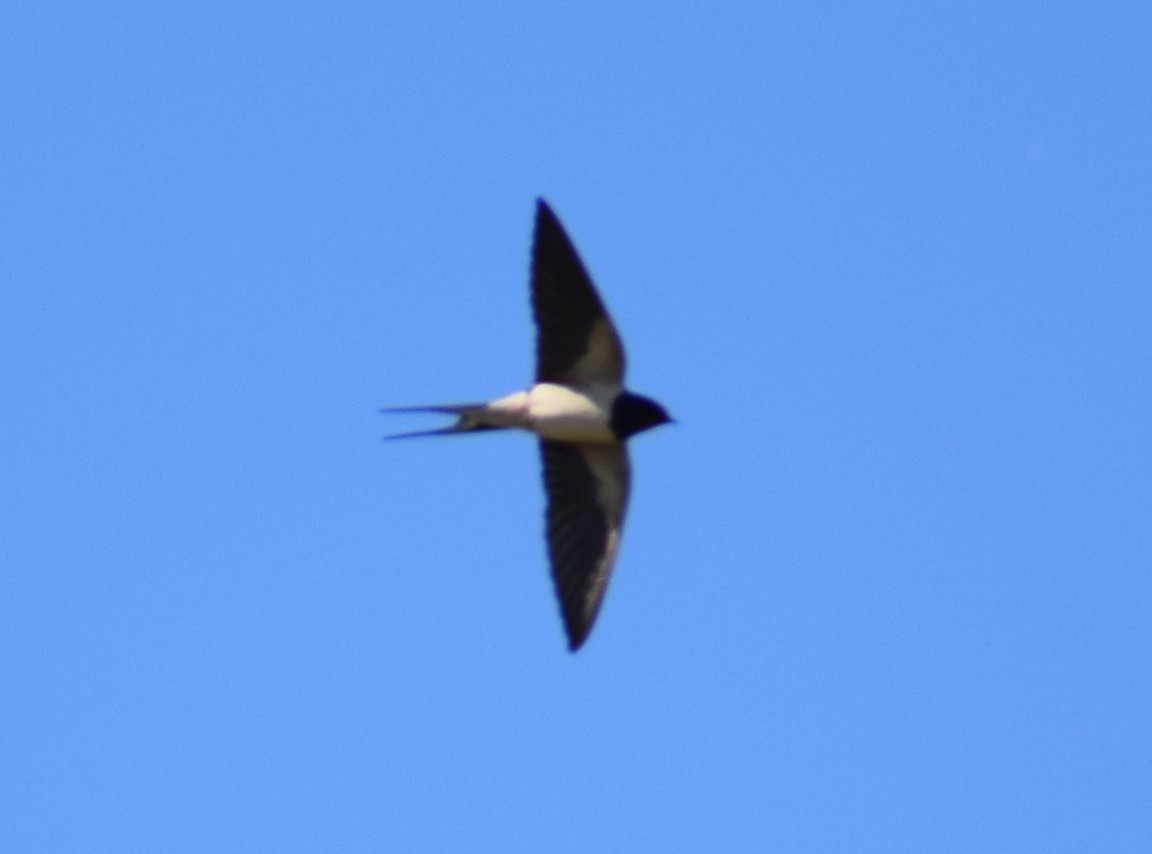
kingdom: Animalia
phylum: Chordata
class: Aves
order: Passeriformes
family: Hirundinidae
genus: Hirundo
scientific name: Hirundo rustica
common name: Barn swallow
